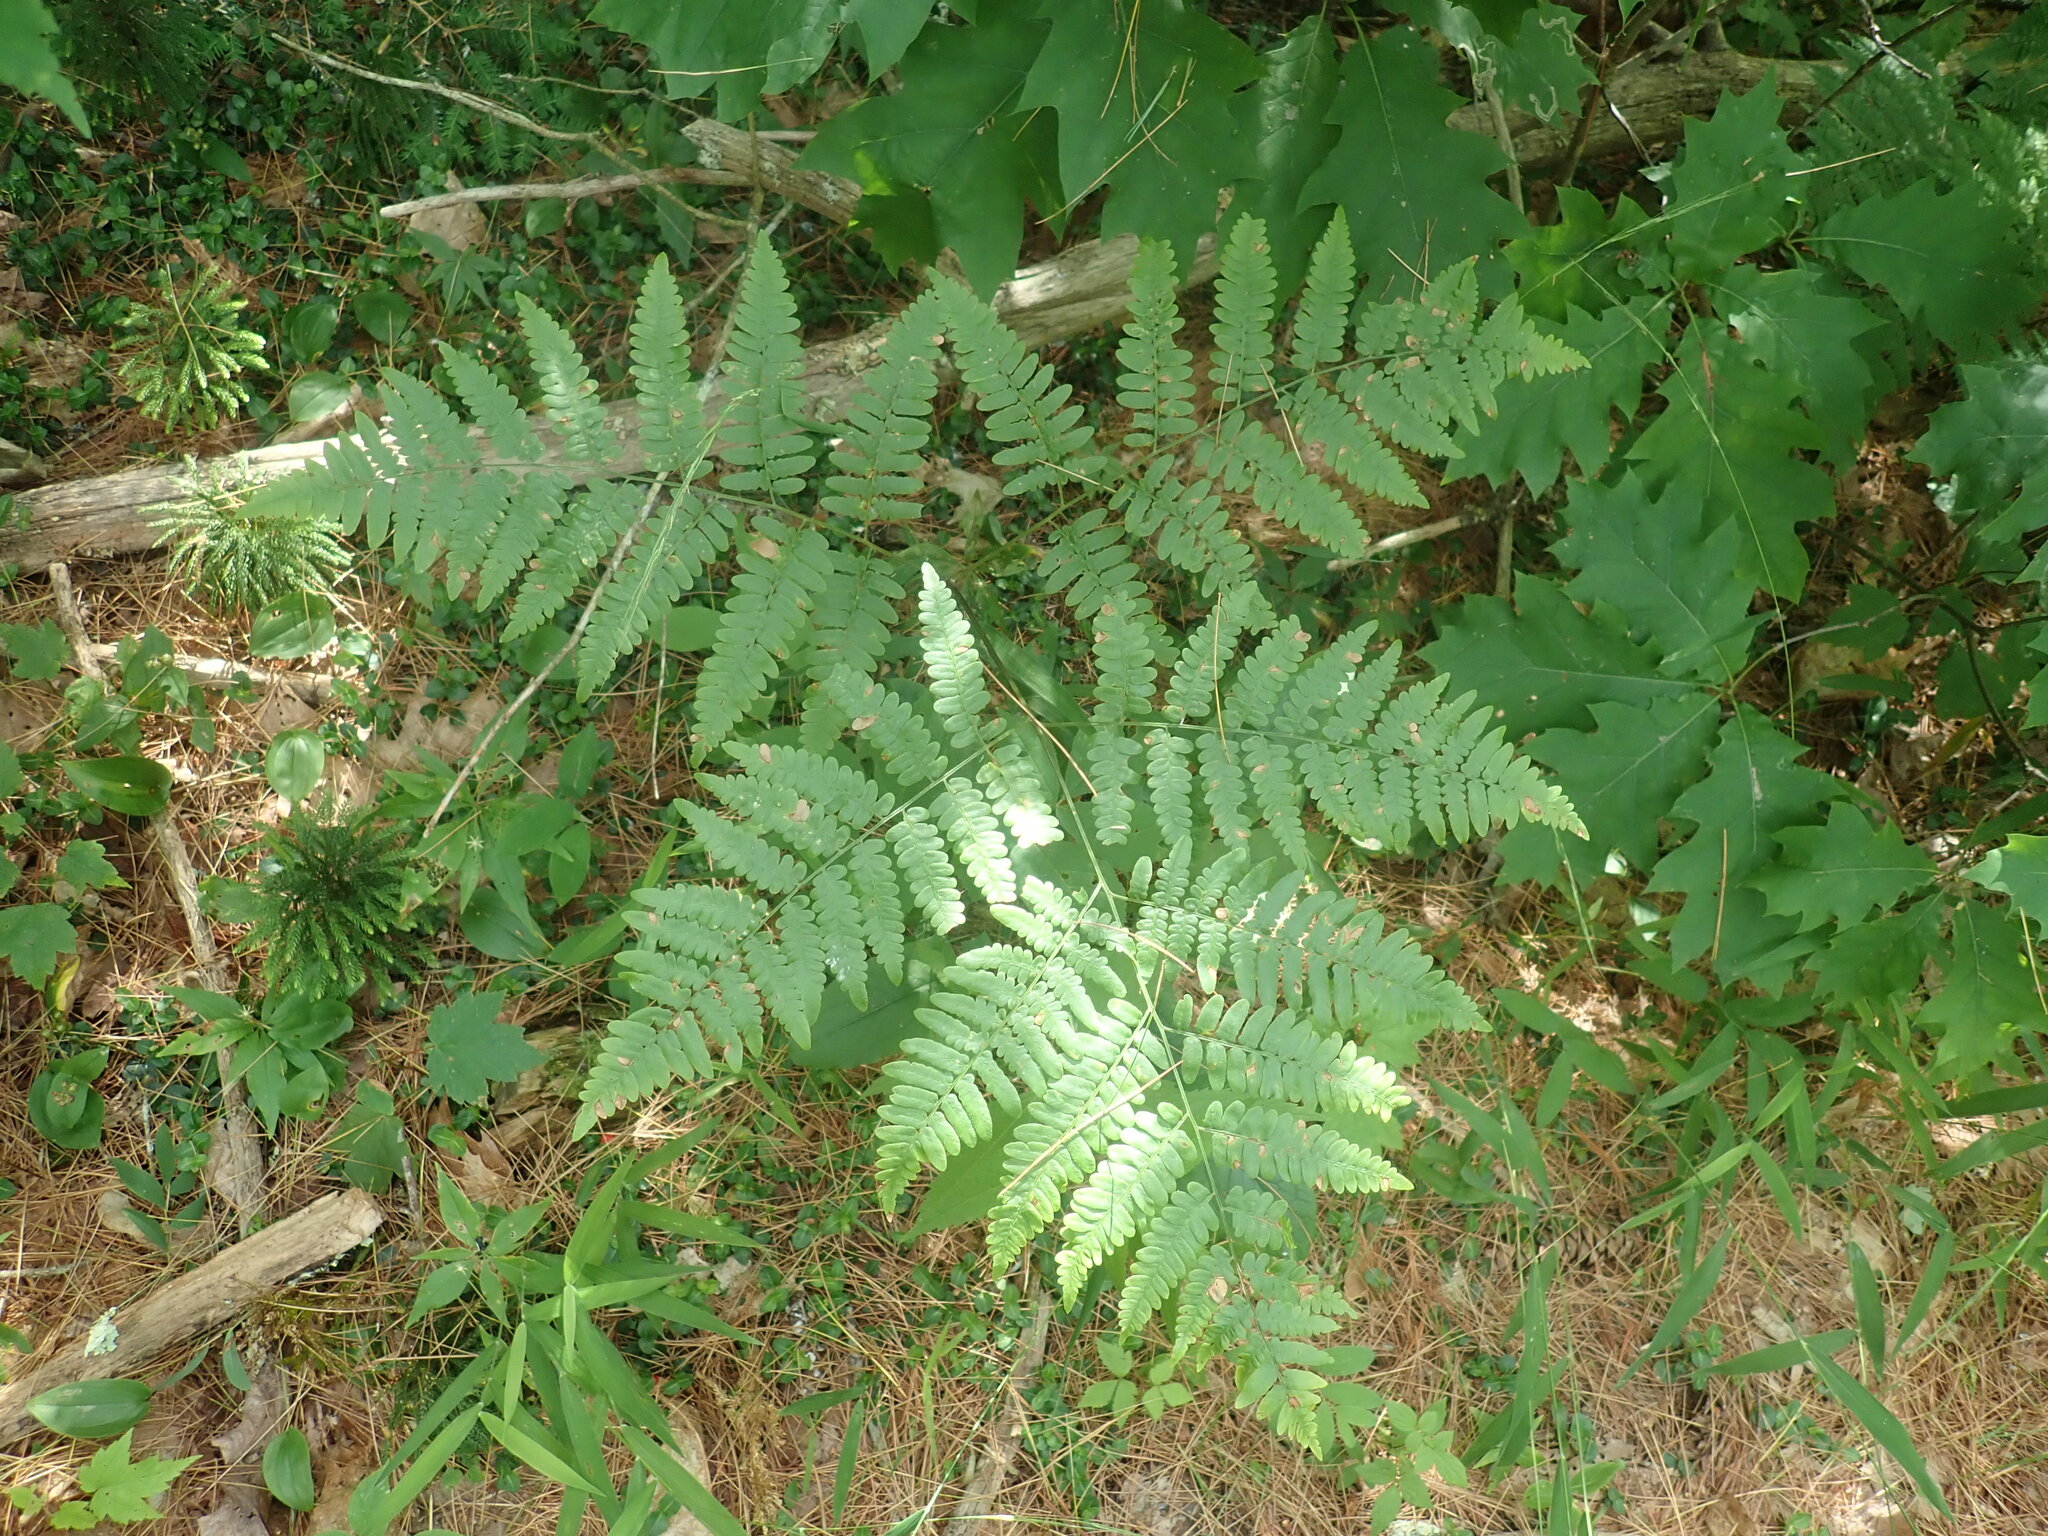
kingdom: Plantae
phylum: Tracheophyta
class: Polypodiopsida
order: Polypodiales
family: Dennstaedtiaceae
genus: Pteridium
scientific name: Pteridium aquilinum
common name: Bracken
